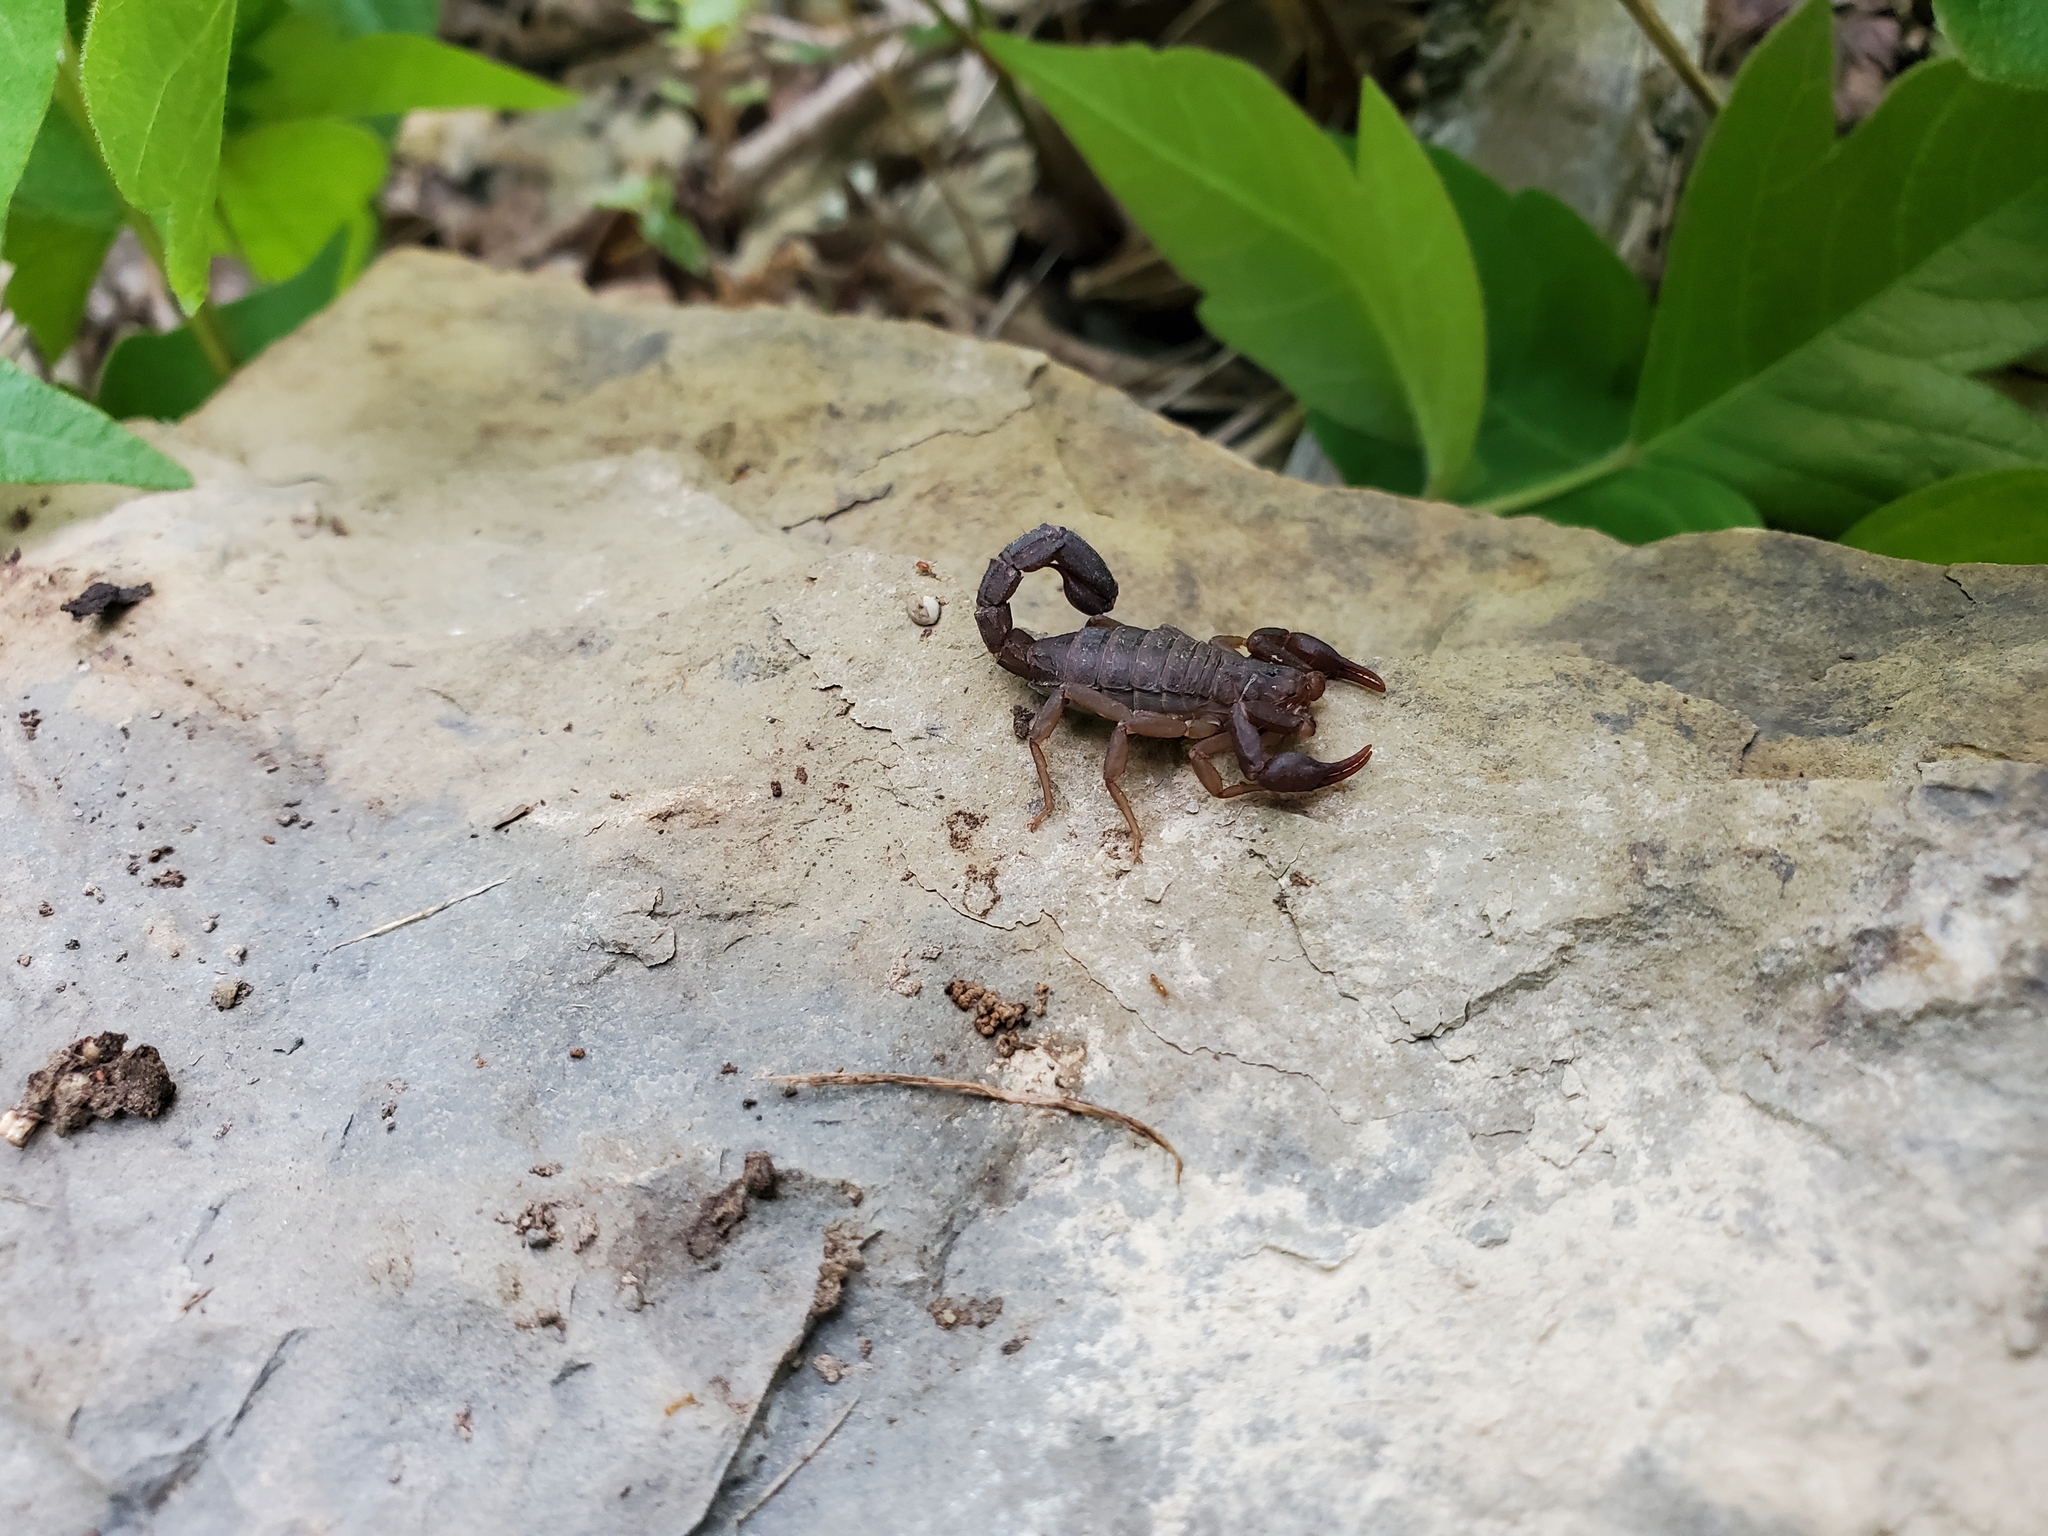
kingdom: Animalia
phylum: Arthropoda
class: Arachnida
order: Scorpiones
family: Vaejovidae
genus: Vaejovis
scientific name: Vaejovis carolinianus
